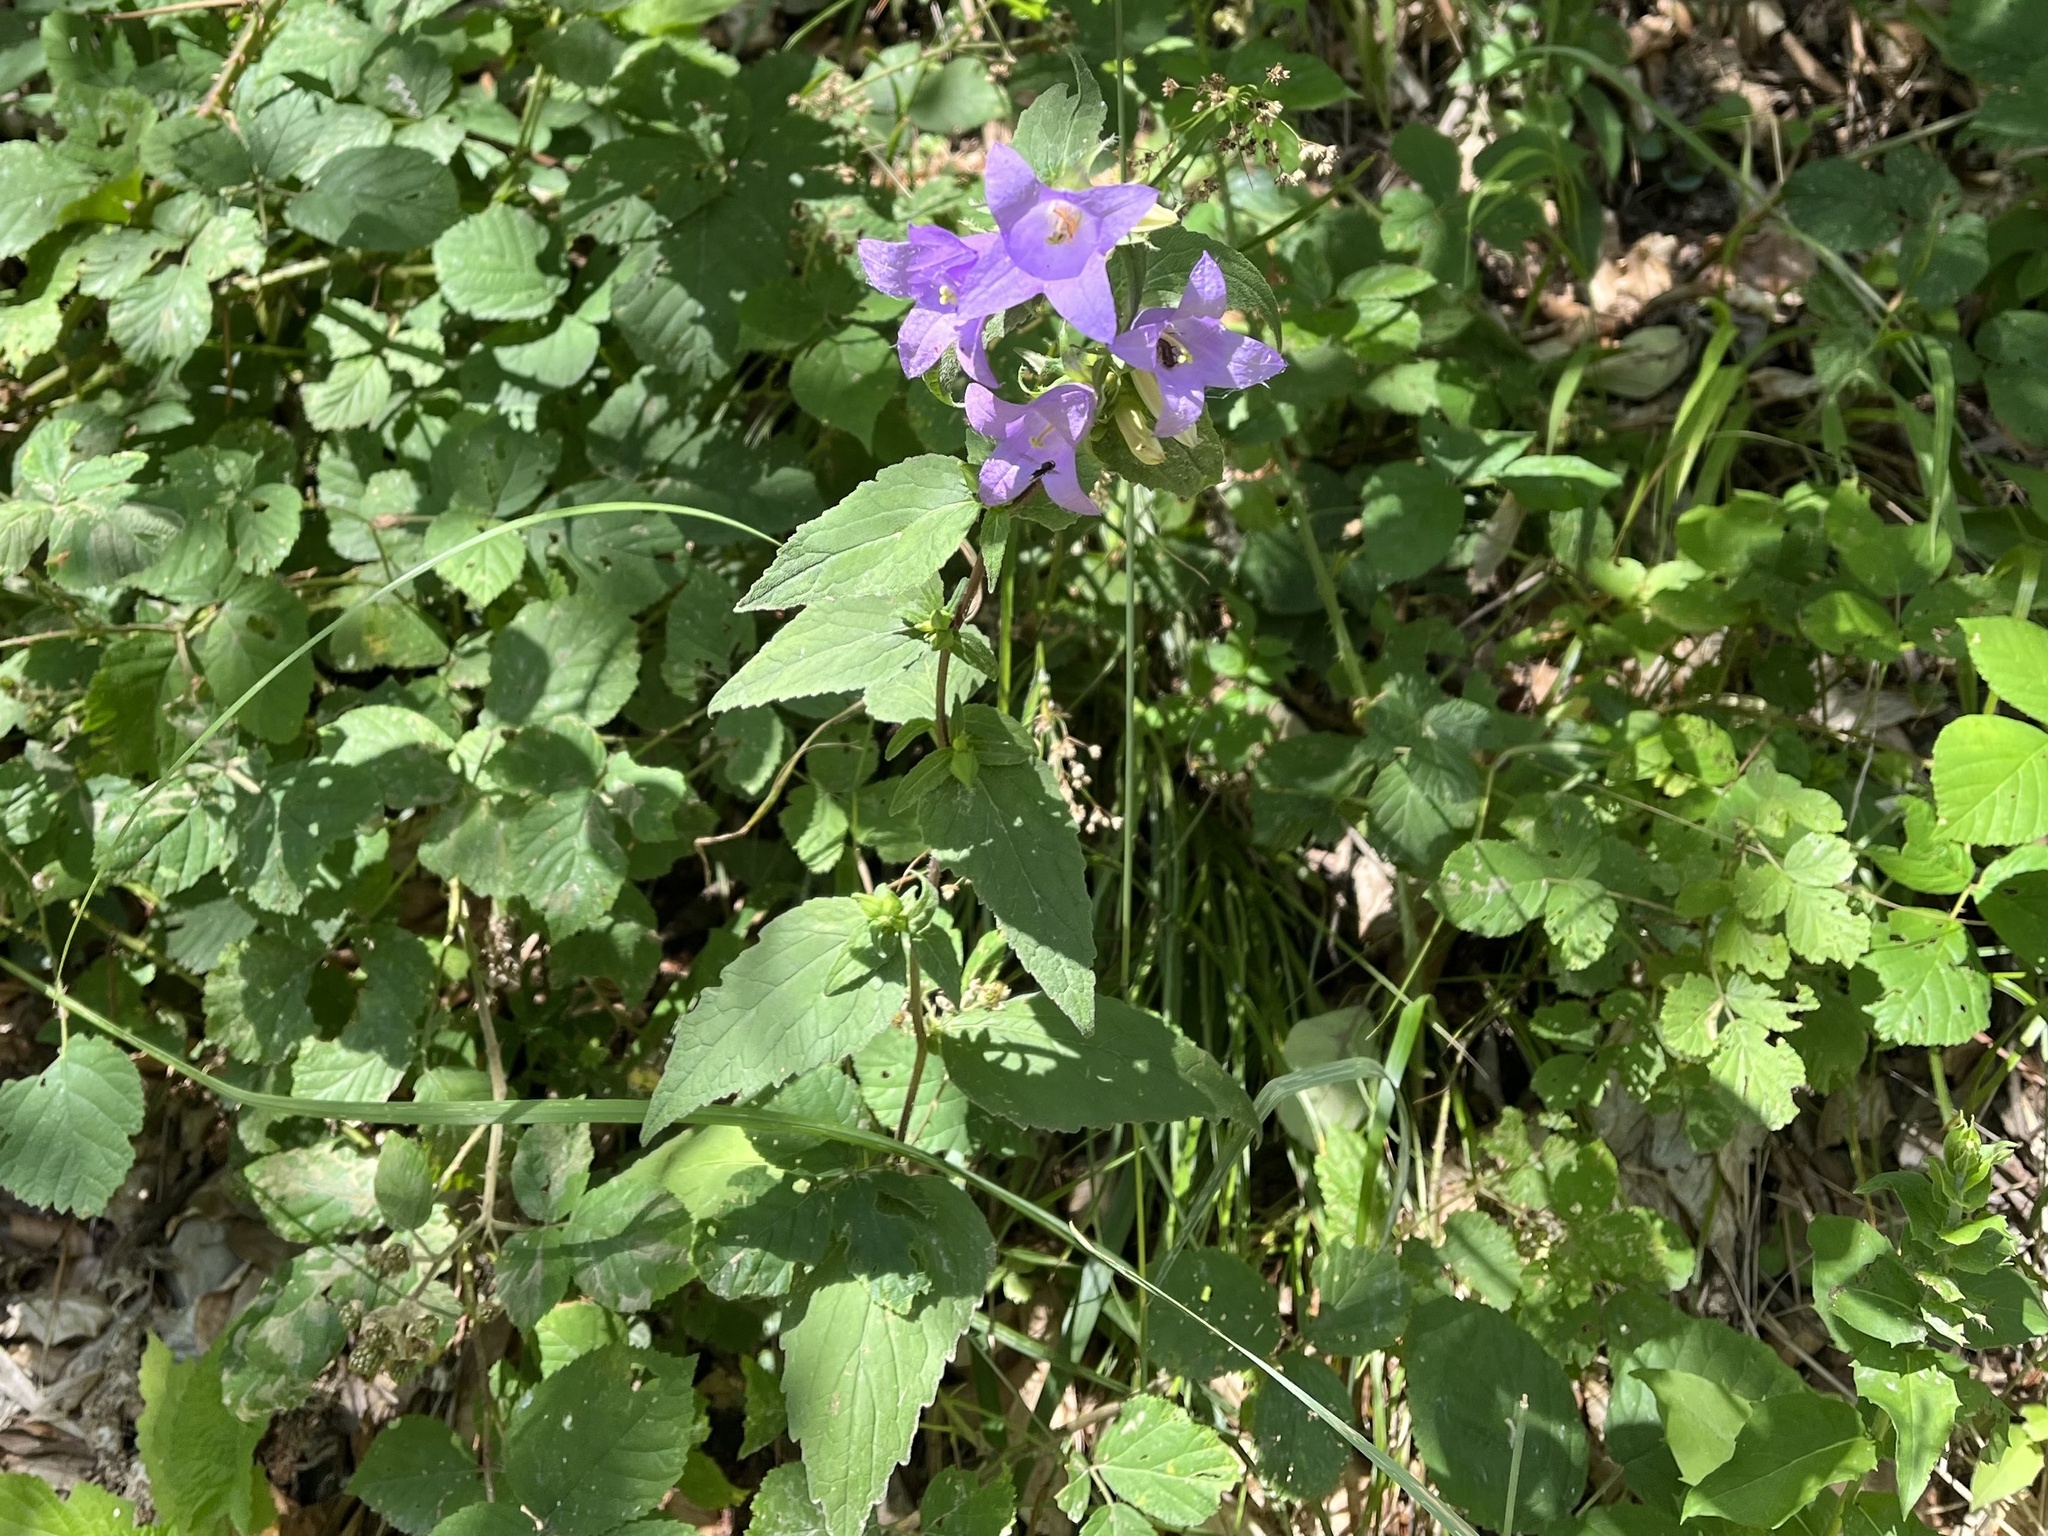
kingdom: Plantae
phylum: Tracheophyta
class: Magnoliopsida
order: Asterales
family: Campanulaceae
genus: Campanula
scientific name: Campanula trachelium
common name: Nettle-leaved bellflower
